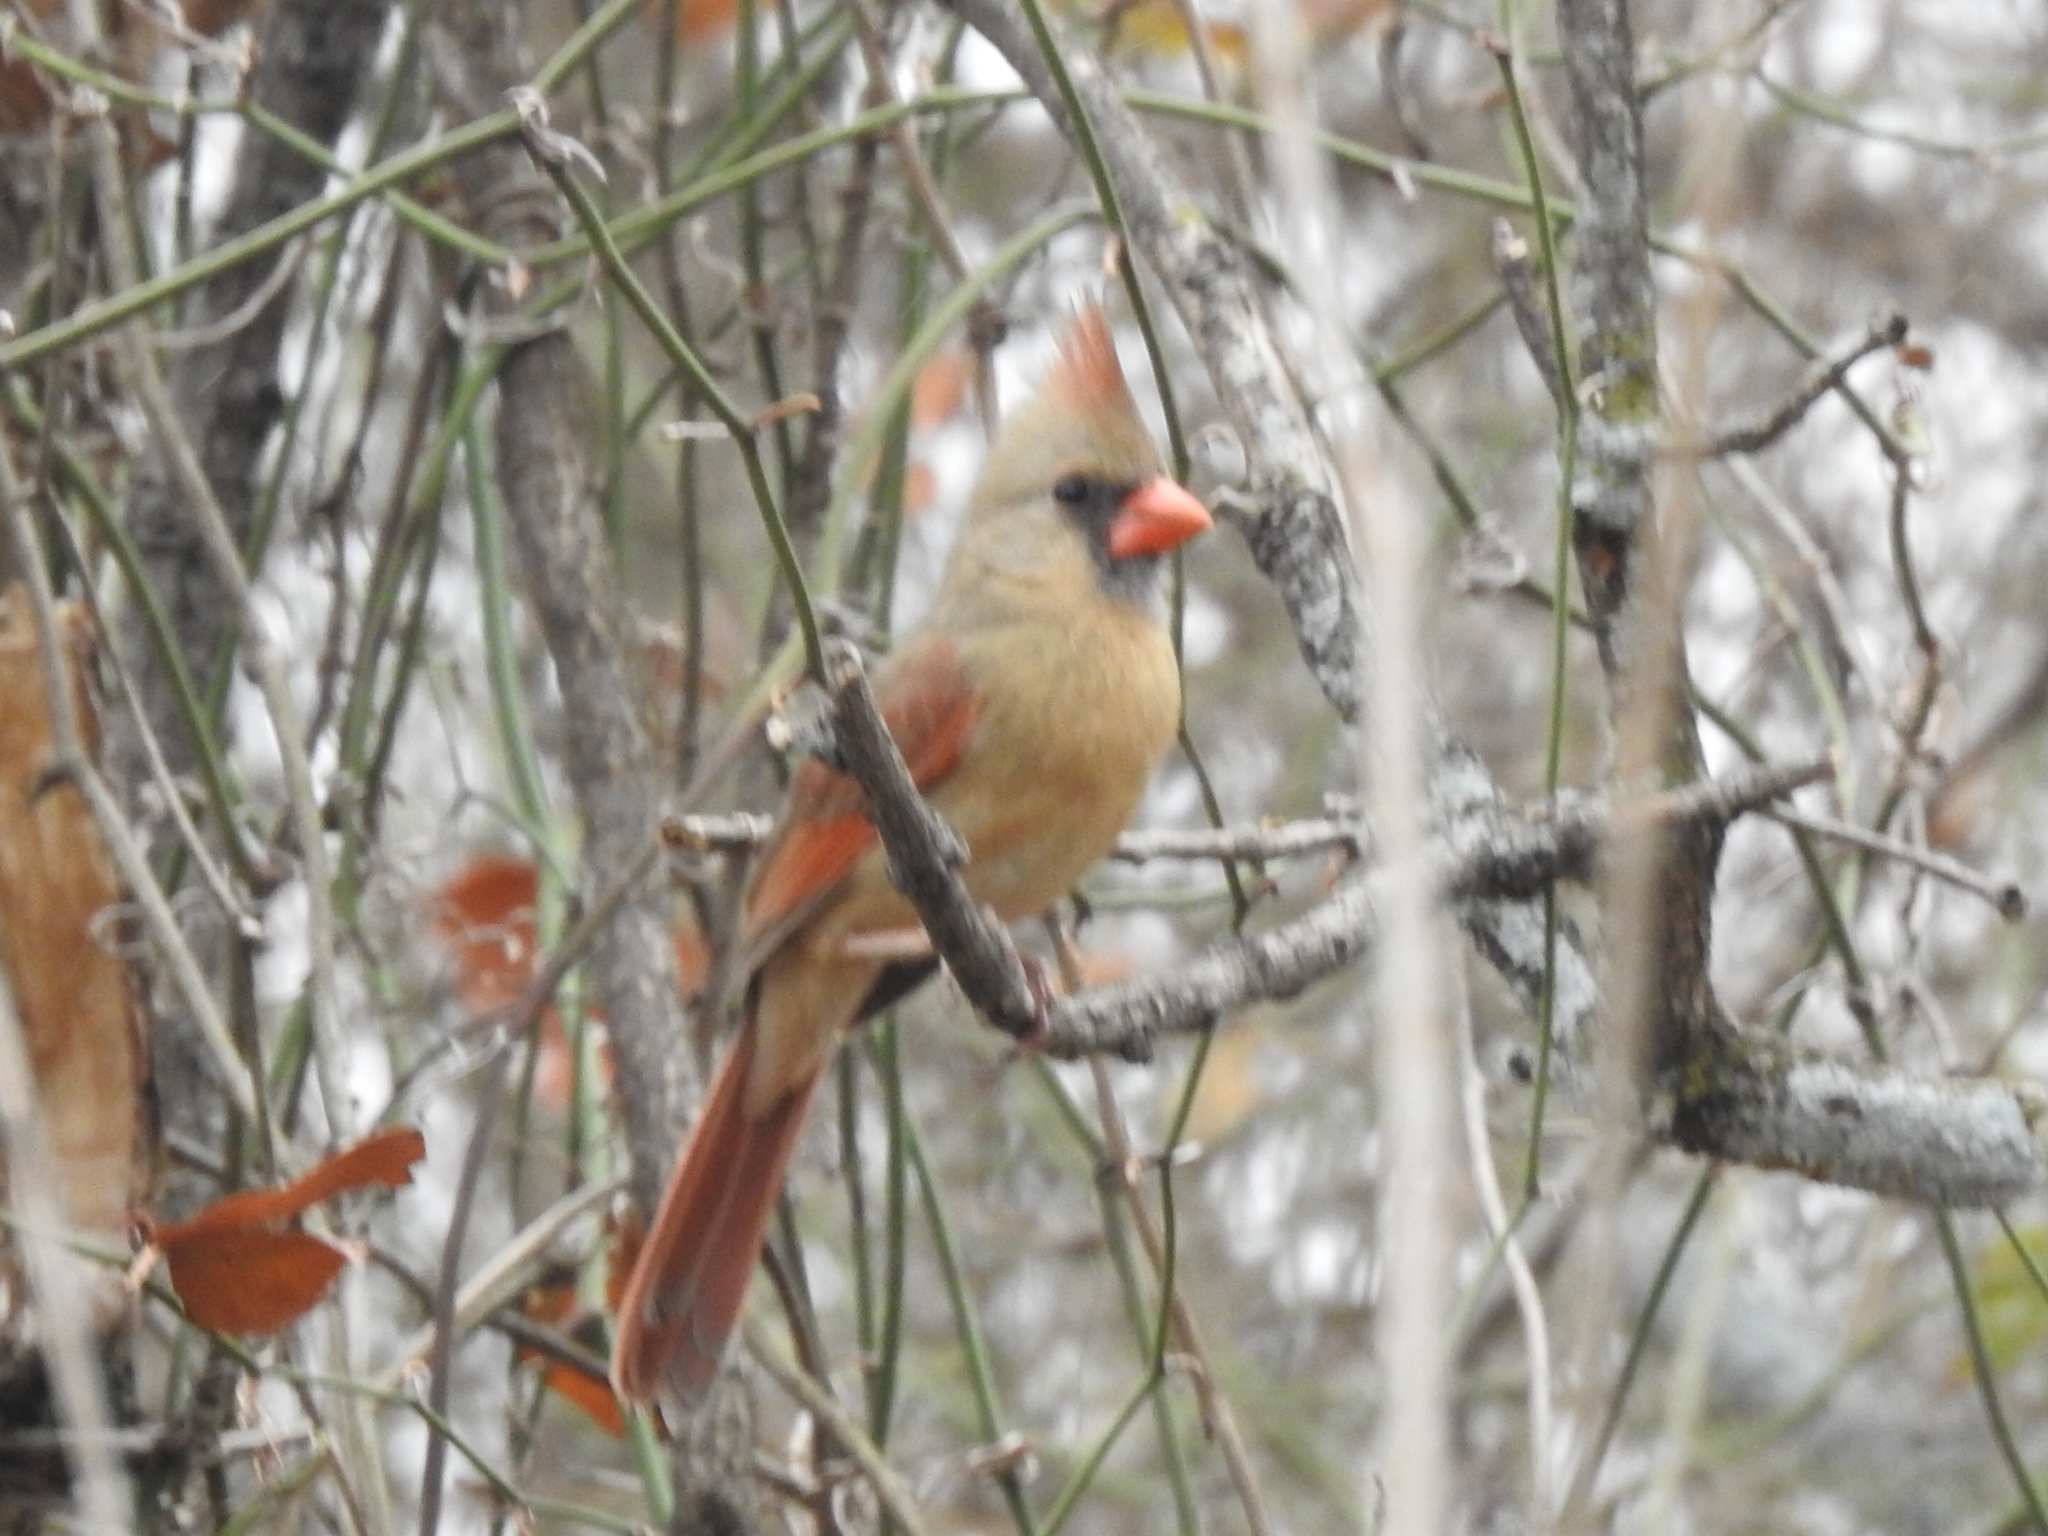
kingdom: Animalia
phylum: Chordata
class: Aves
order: Passeriformes
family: Cardinalidae
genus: Cardinalis
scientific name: Cardinalis cardinalis
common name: Northern cardinal
